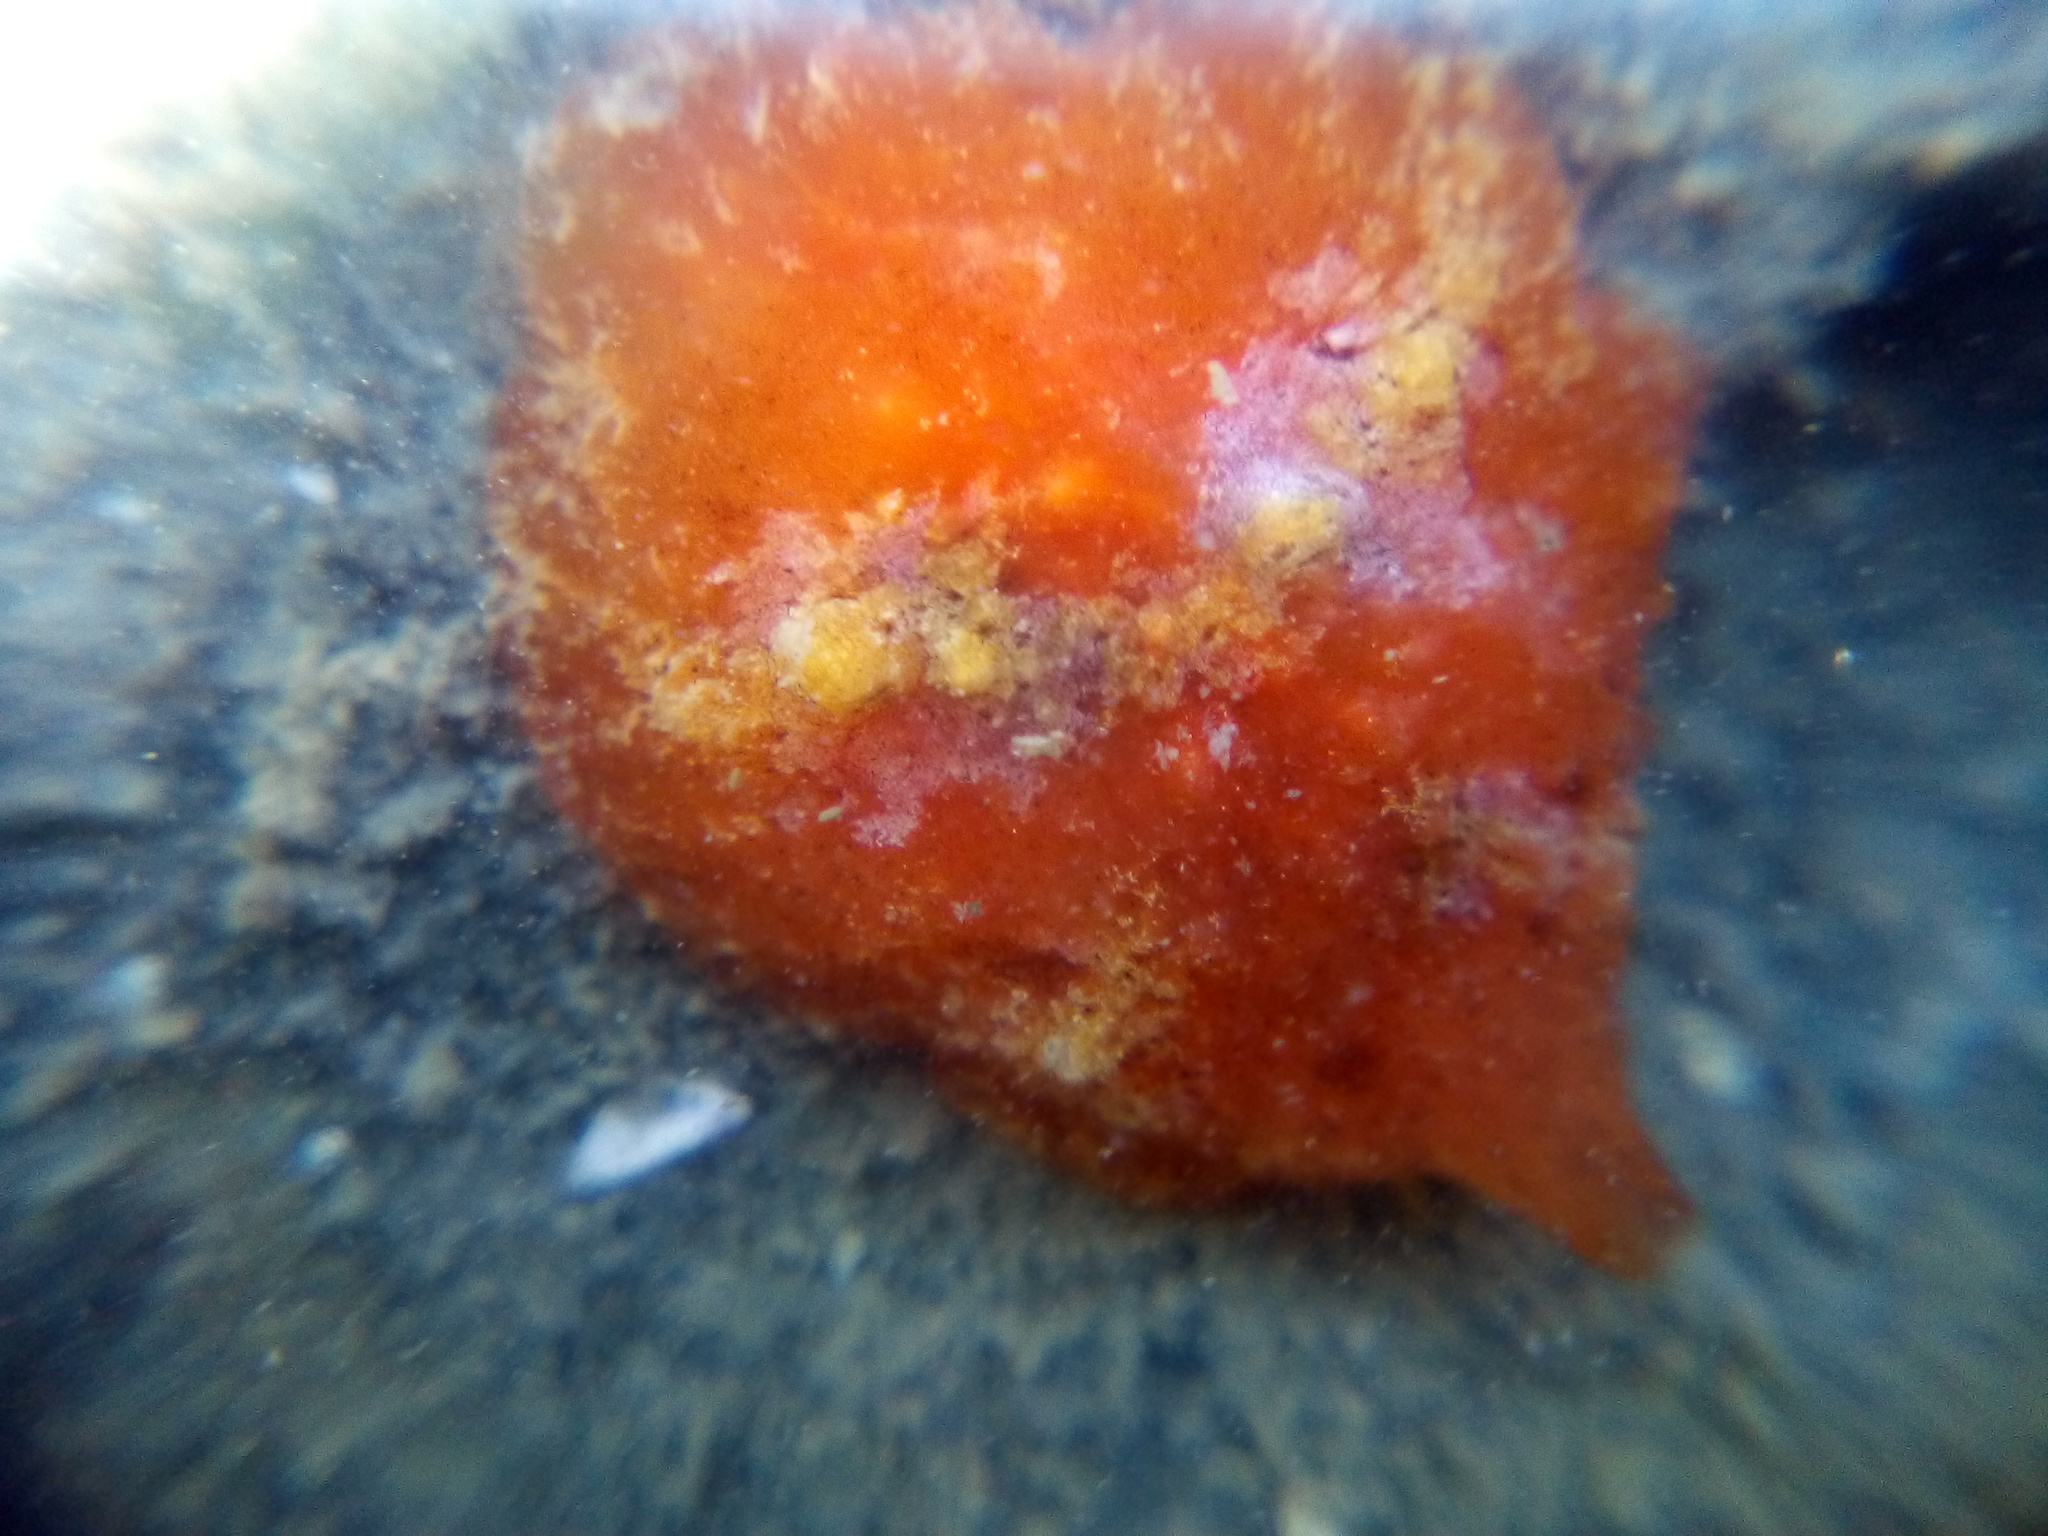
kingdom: Animalia
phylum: Mollusca
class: Gastropoda
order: Littorinimorpha
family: Velutinidae
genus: Lamellaria
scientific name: Lamellaria ophione
